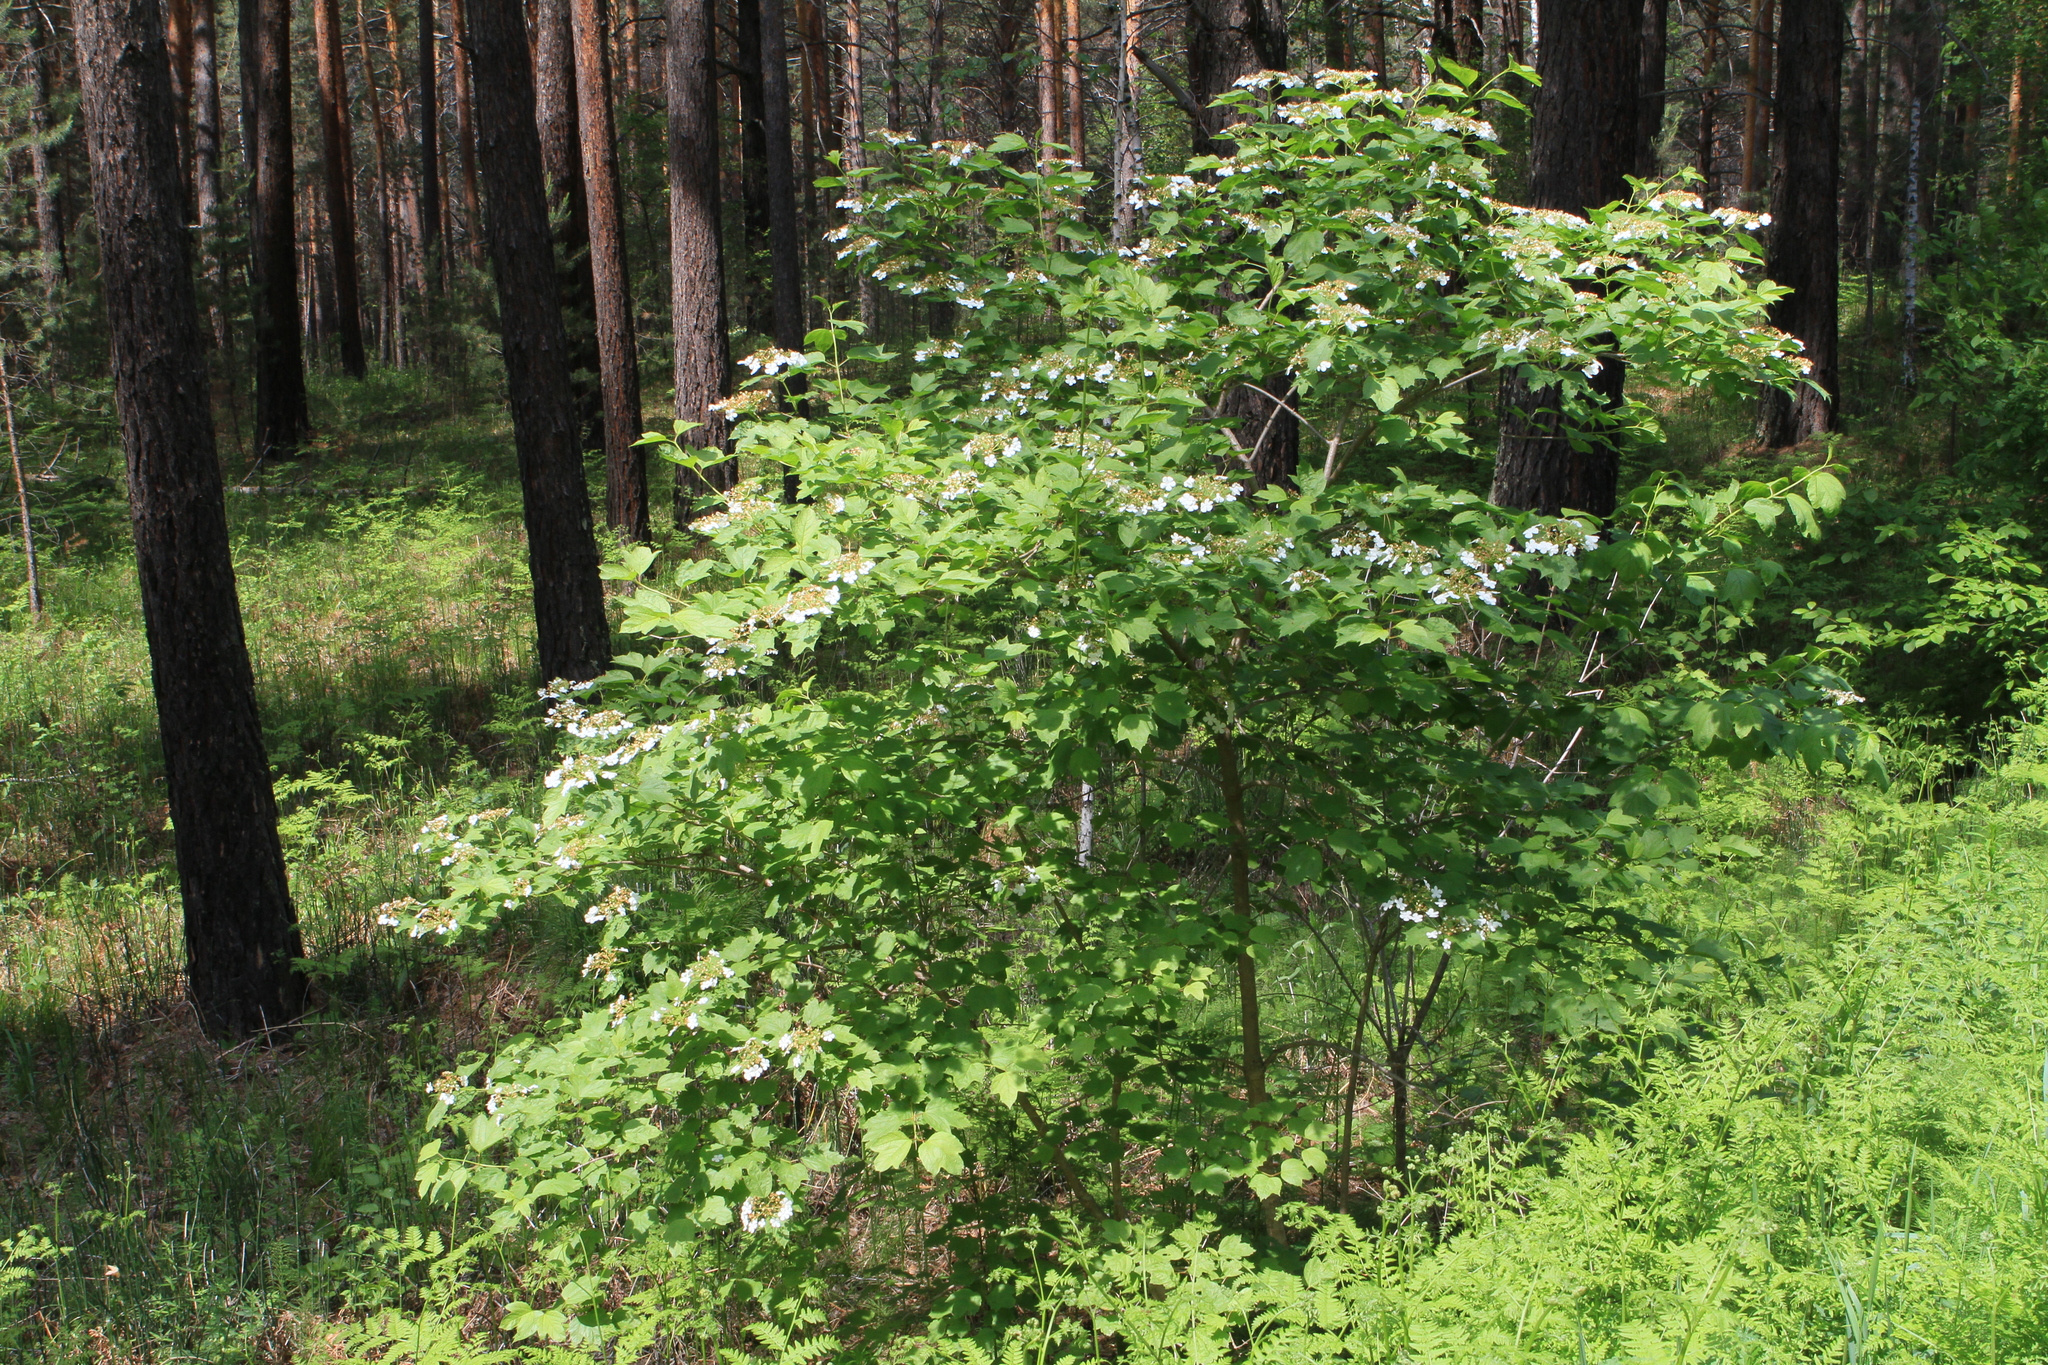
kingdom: Plantae
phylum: Tracheophyta
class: Magnoliopsida
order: Dipsacales
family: Viburnaceae
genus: Viburnum
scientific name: Viburnum opulus
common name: Guelder-rose
